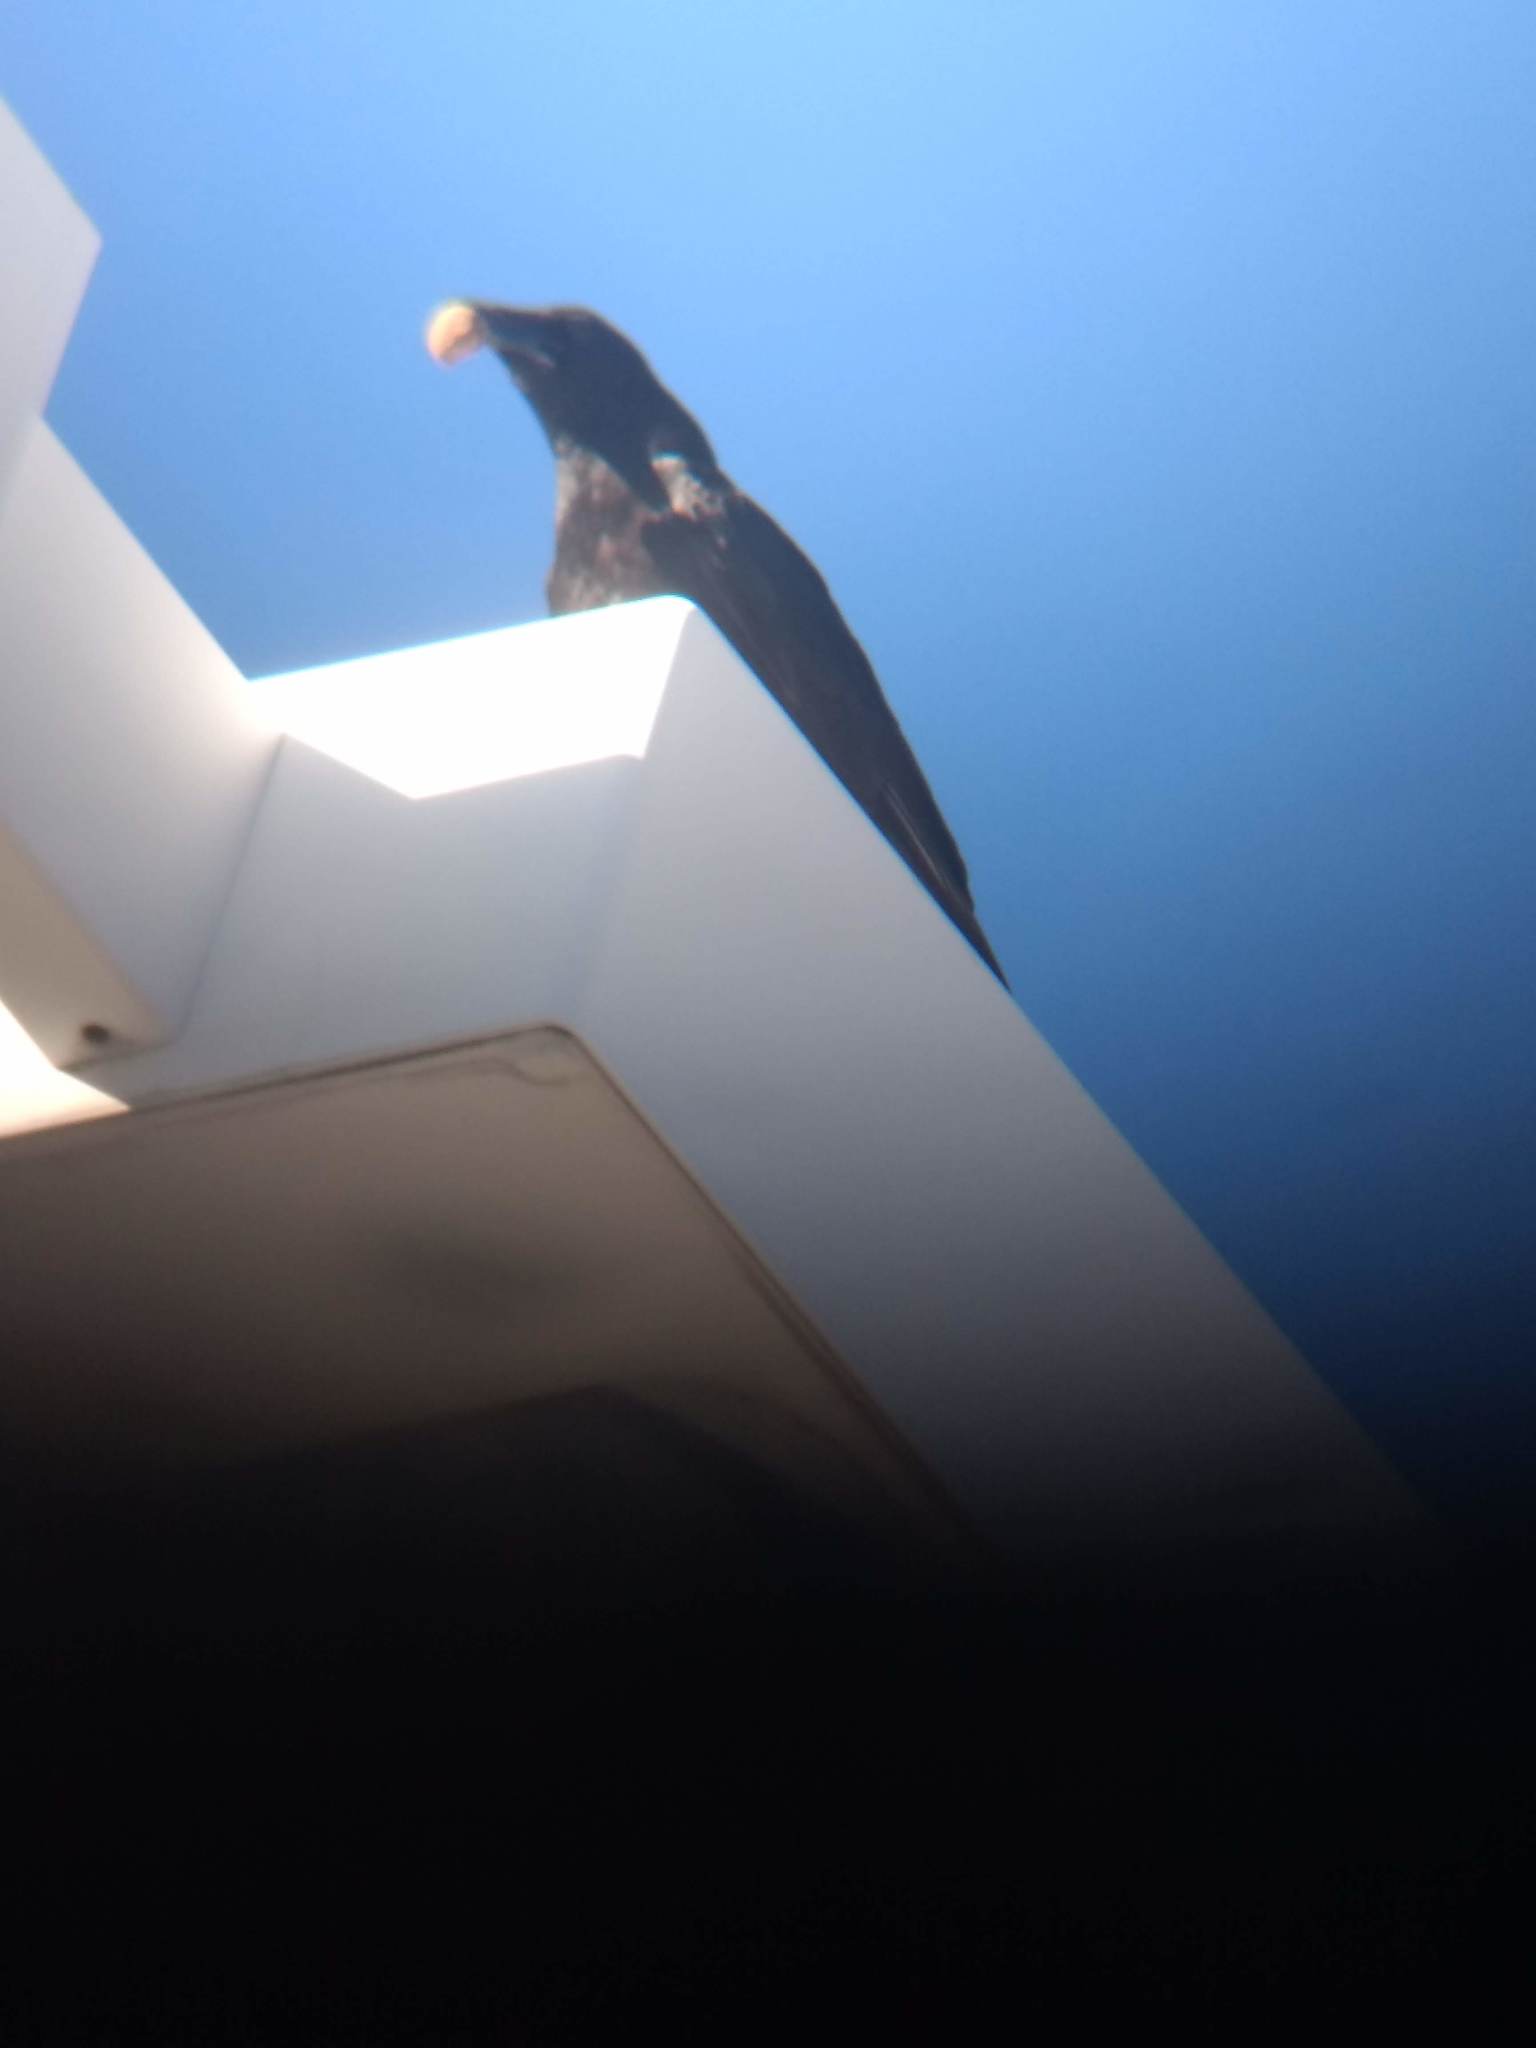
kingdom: Animalia
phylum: Chordata
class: Aves
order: Passeriformes
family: Corvidae
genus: Corvus
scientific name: Corvus brachyrhynchos
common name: American crow
